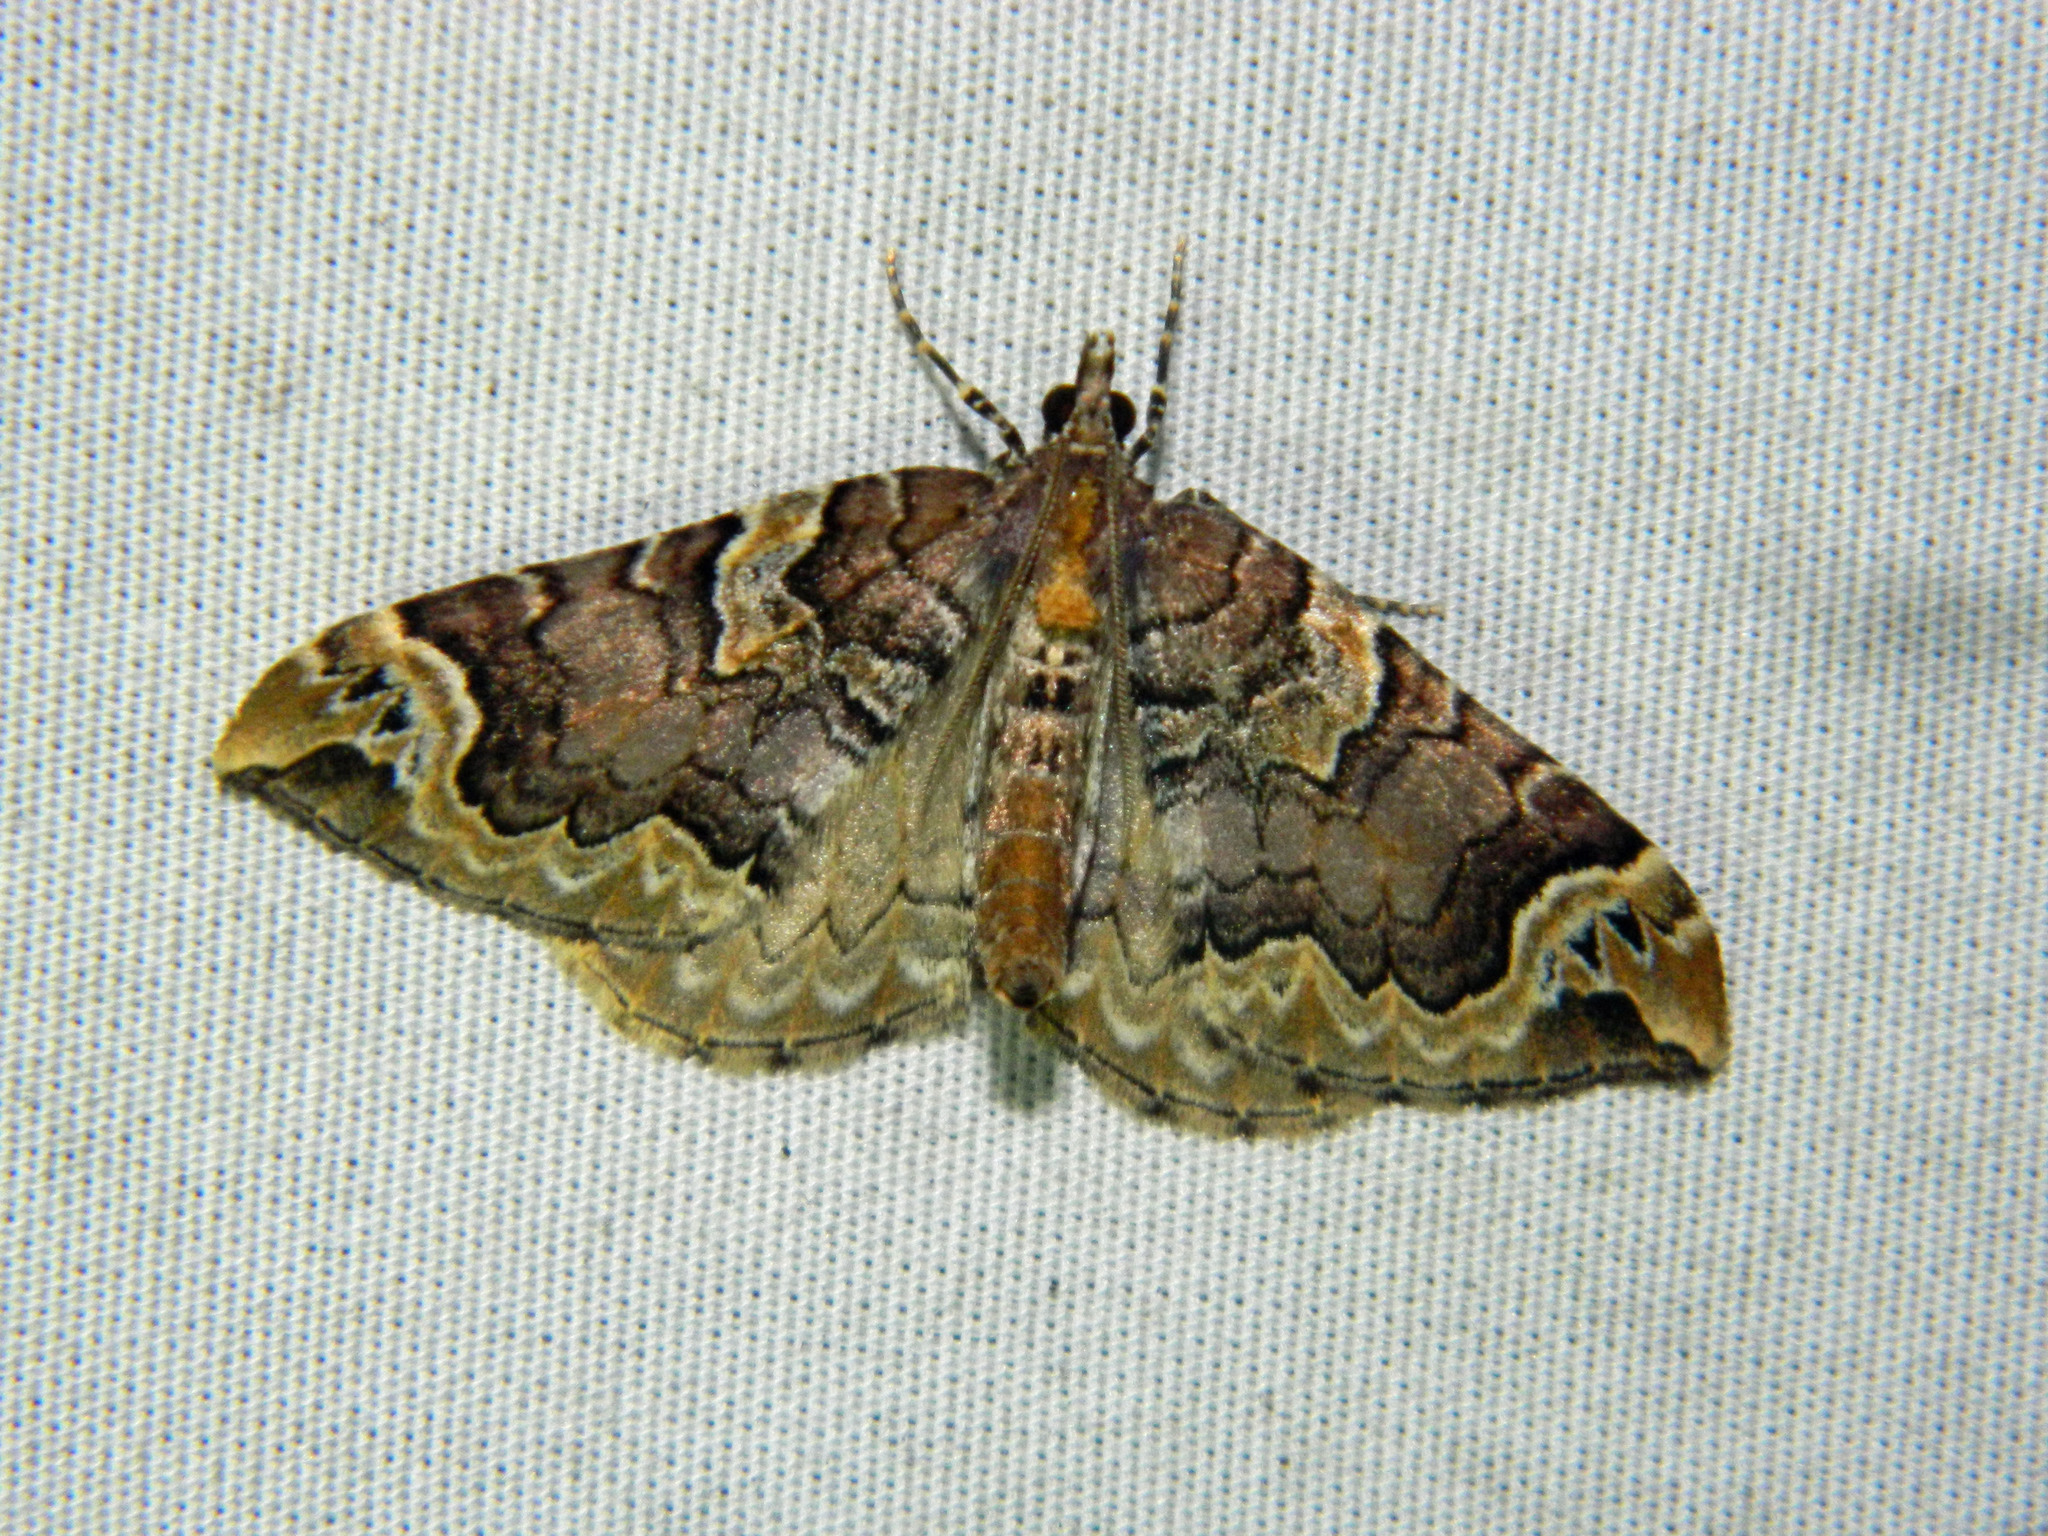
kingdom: Animalia
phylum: Arthropoda
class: Insecta
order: Lepidoptera
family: Geometridae
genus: Eulithis
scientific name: Eulithis serrataria
